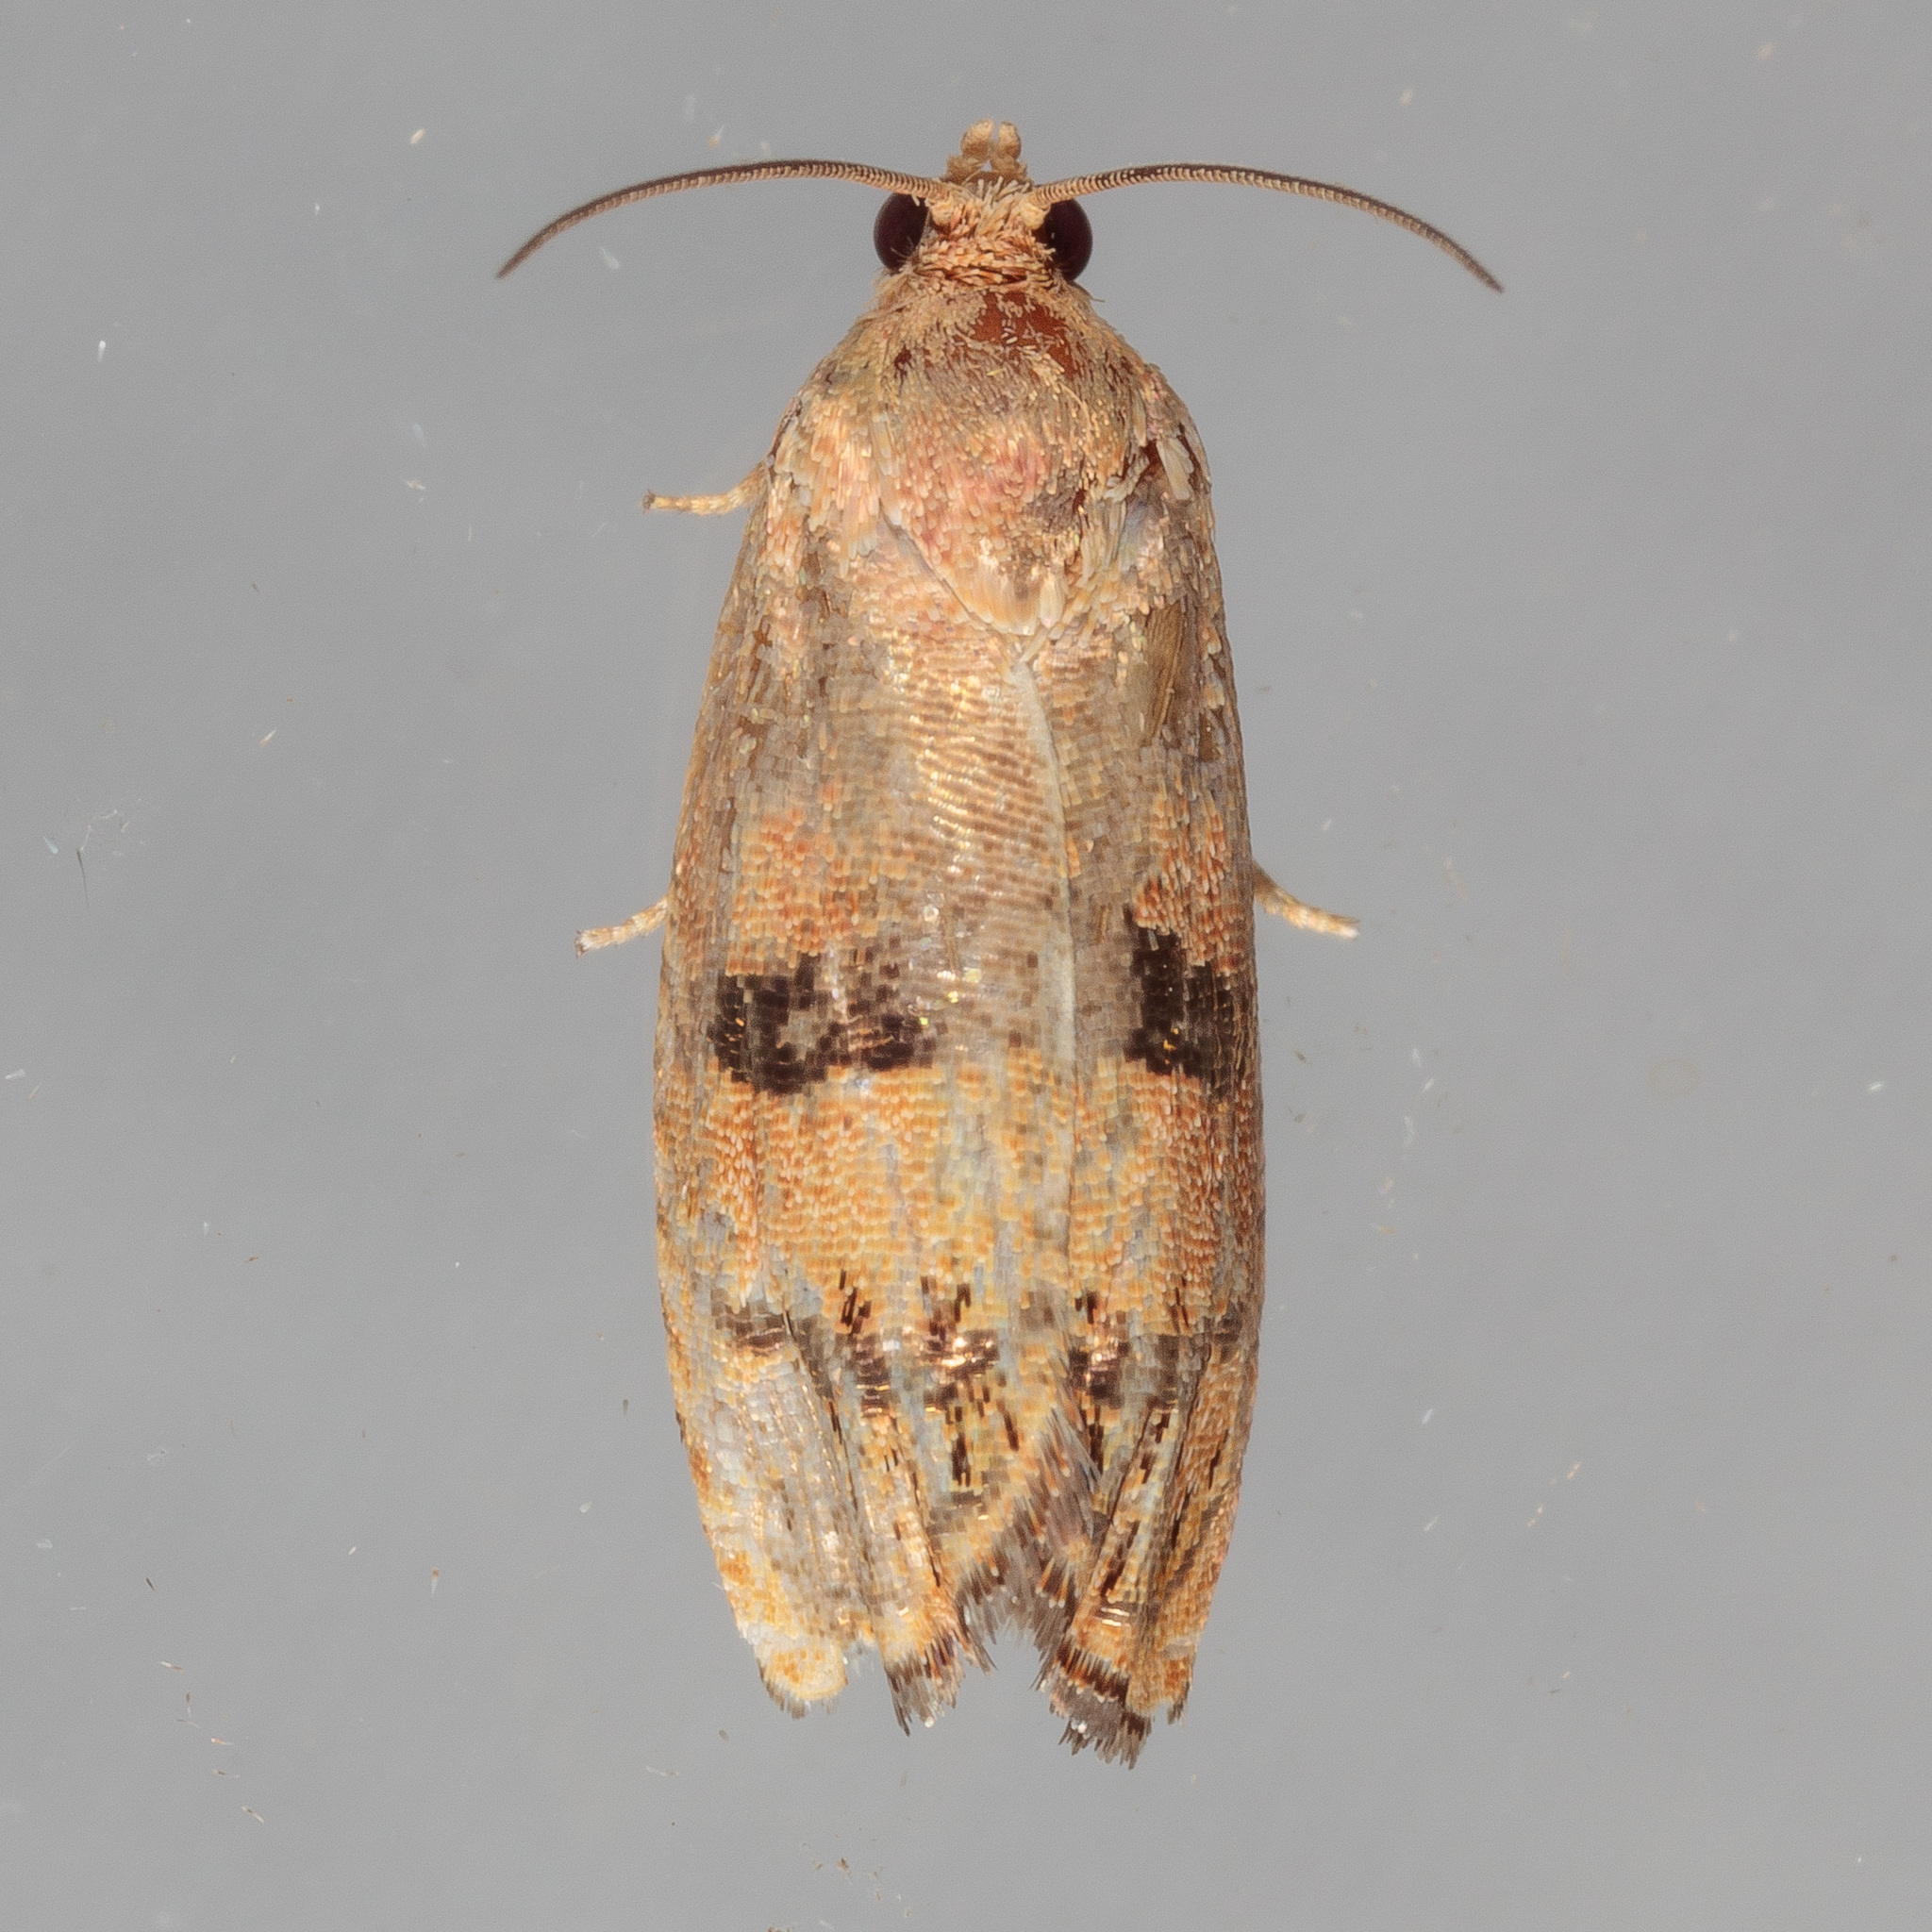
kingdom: Animalia
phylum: Arthropoda
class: Insecta
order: Lepidoptera
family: Tortricidae
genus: Cydia
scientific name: Cydia latiferreana
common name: Filbertworm moth
